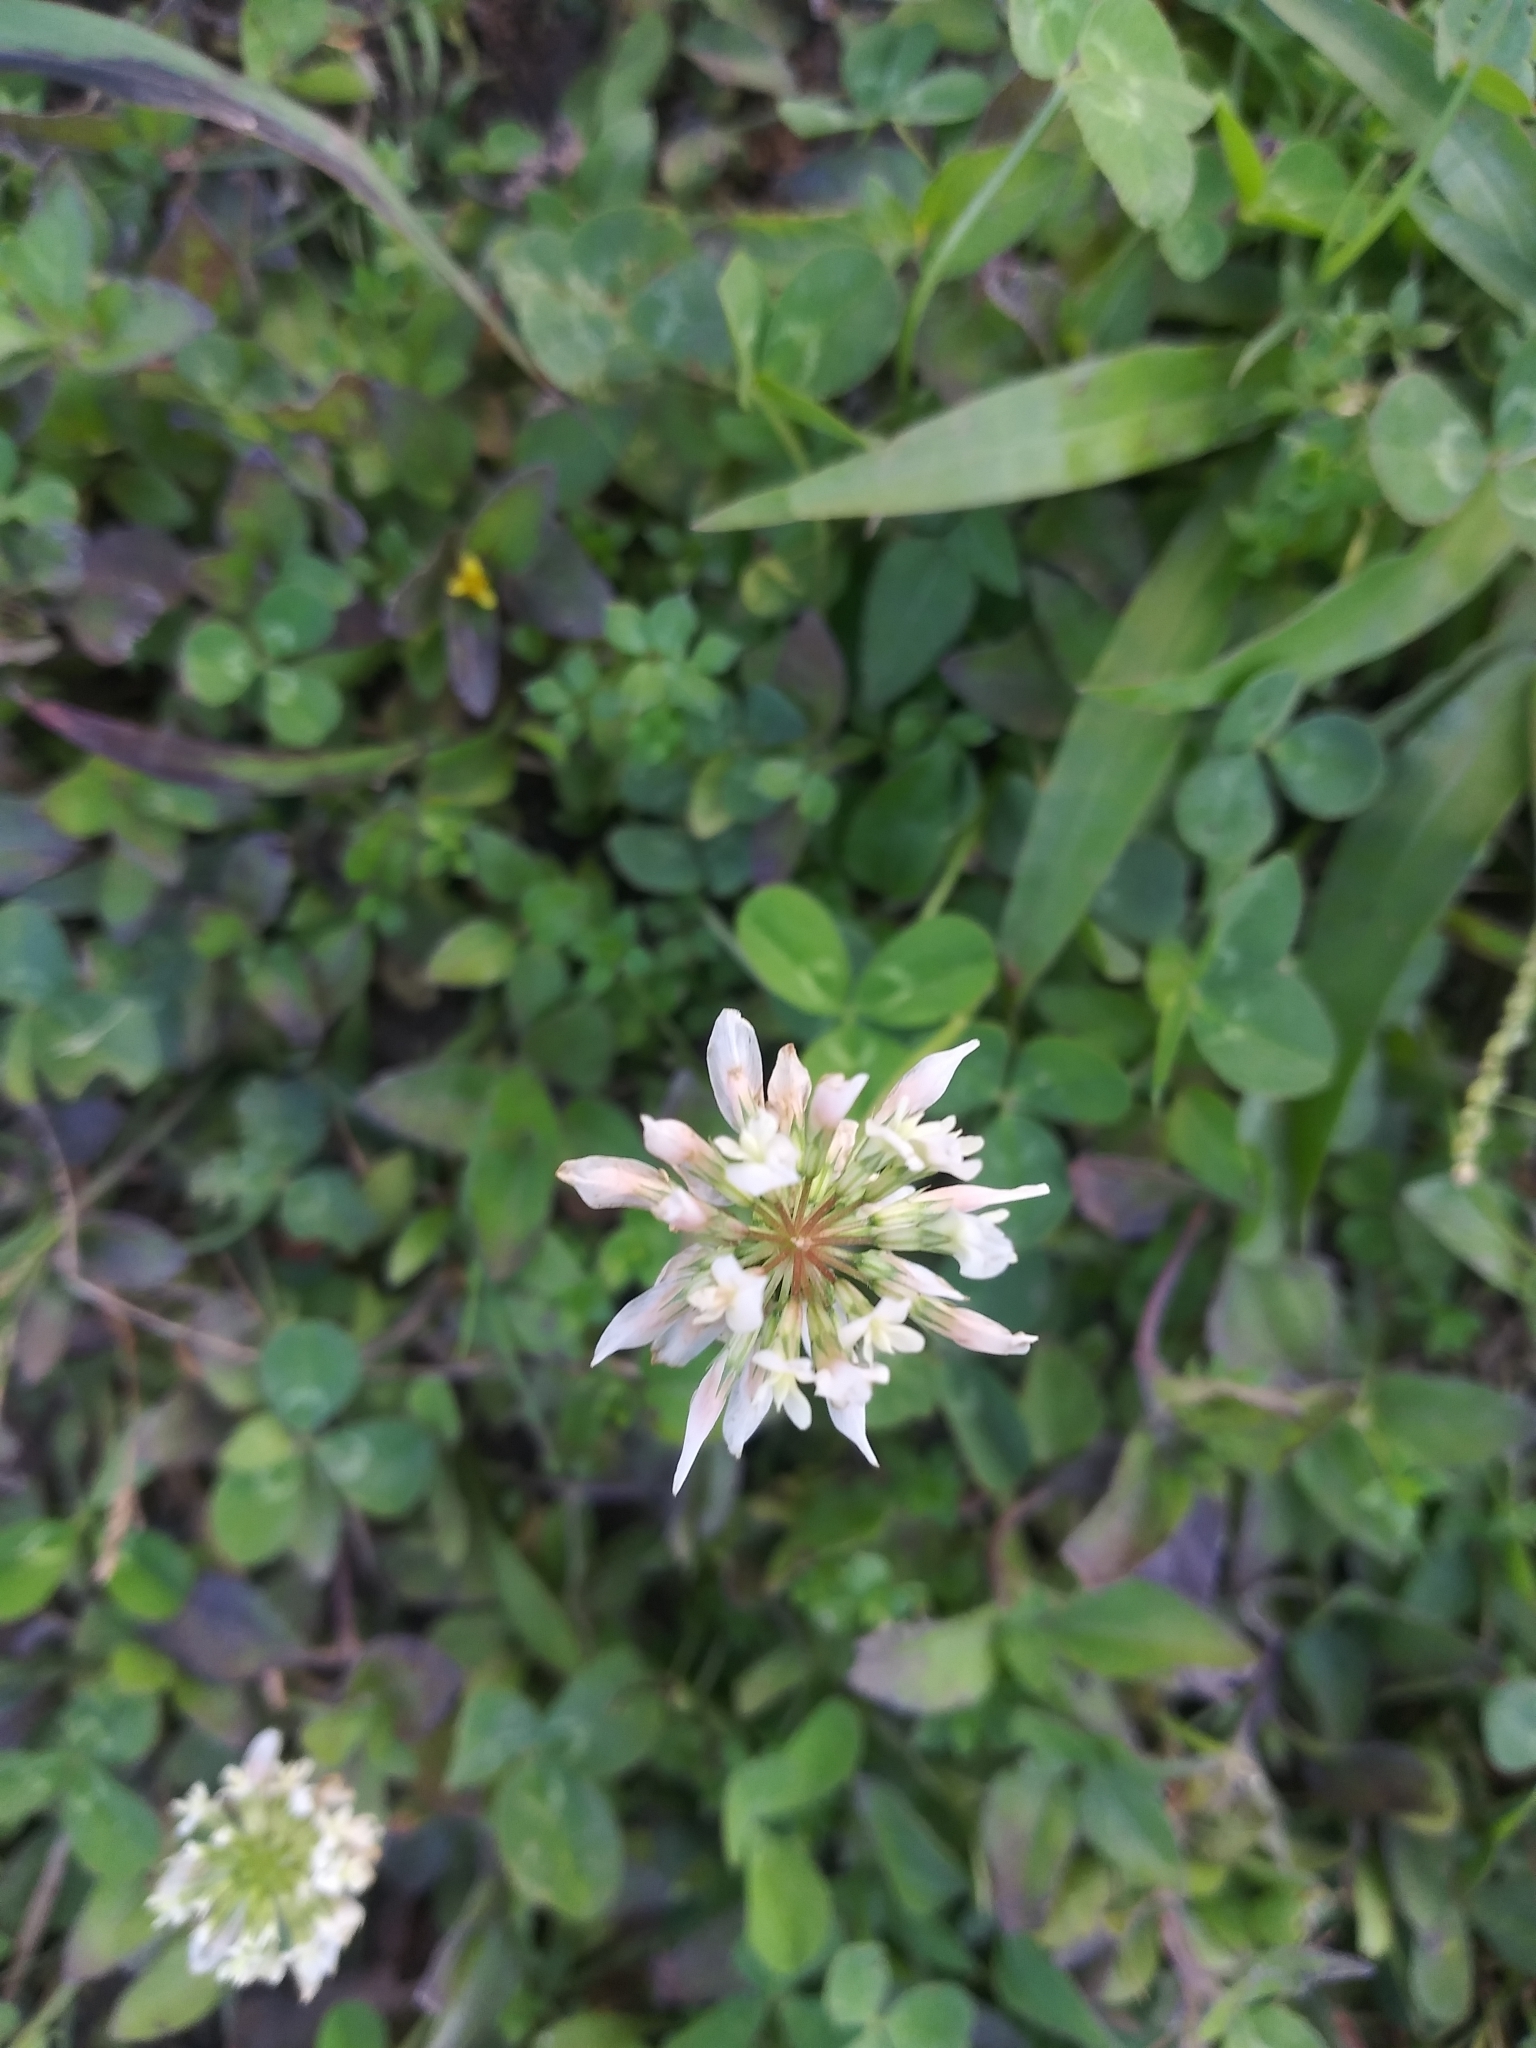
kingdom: Plantae
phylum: Tracheophyta
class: Magnoliopsida
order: Fabales
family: Fabaceae
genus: Trifolium
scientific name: Trifolium repens
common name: White clover
